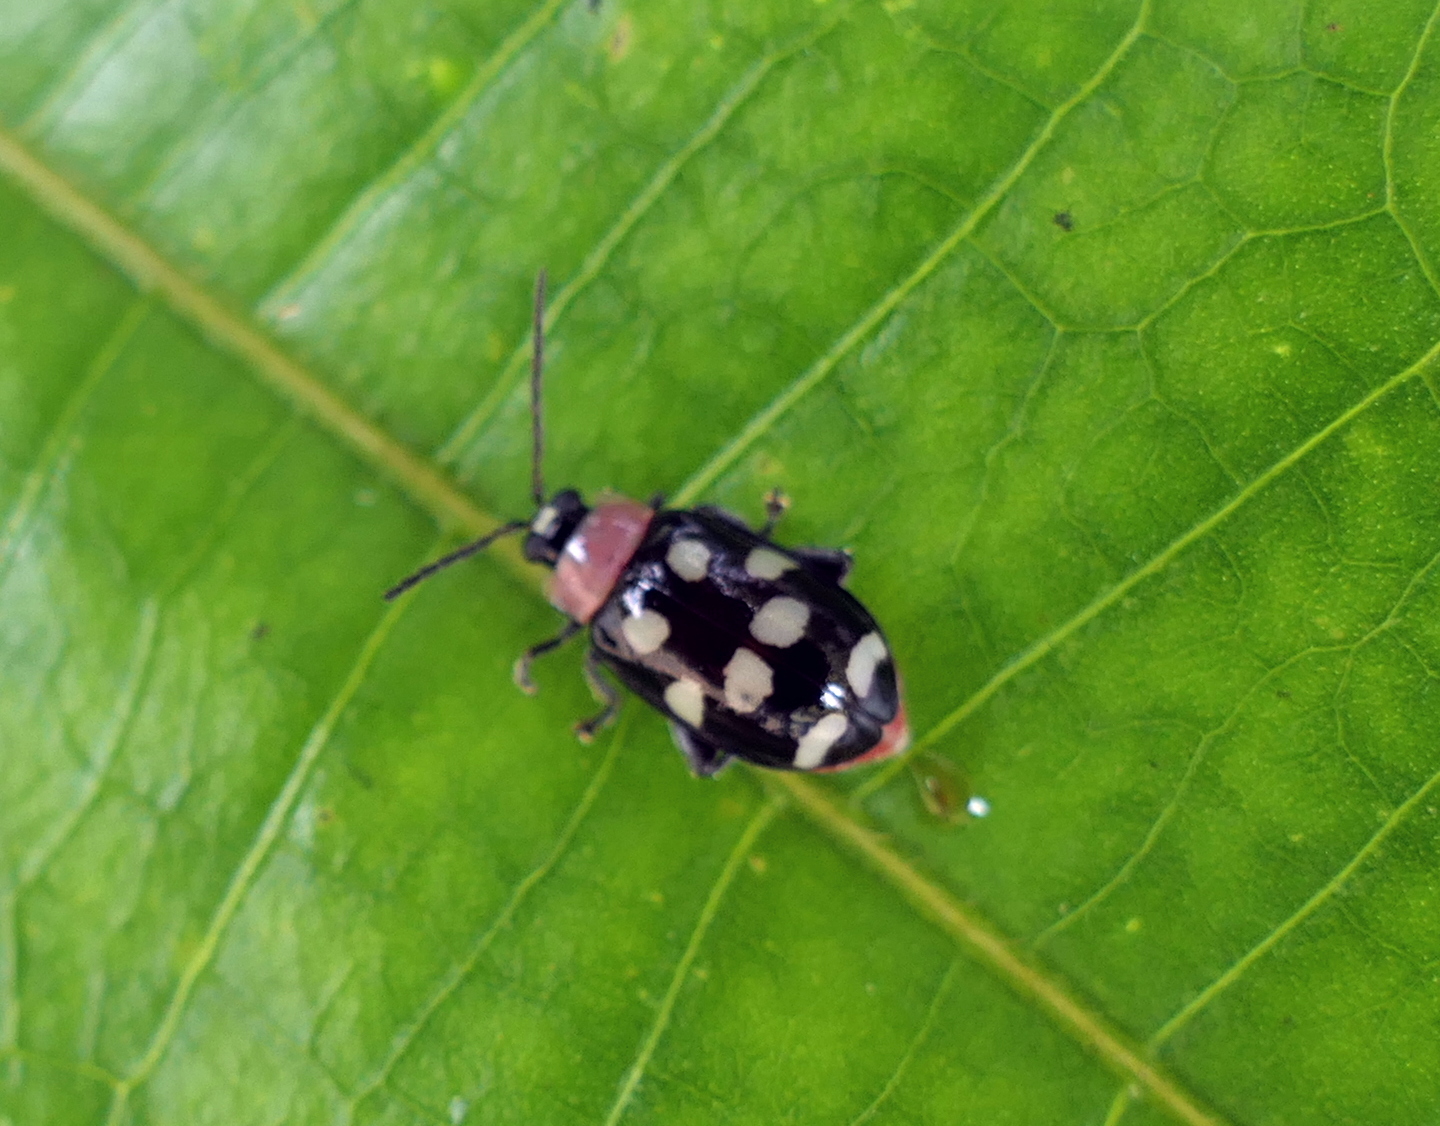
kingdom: Animalia
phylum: Arthropoda
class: Insecta
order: Coleoptera
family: Chrysomelidae
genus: Omophoita
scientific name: Omophoita aequinoctialis
